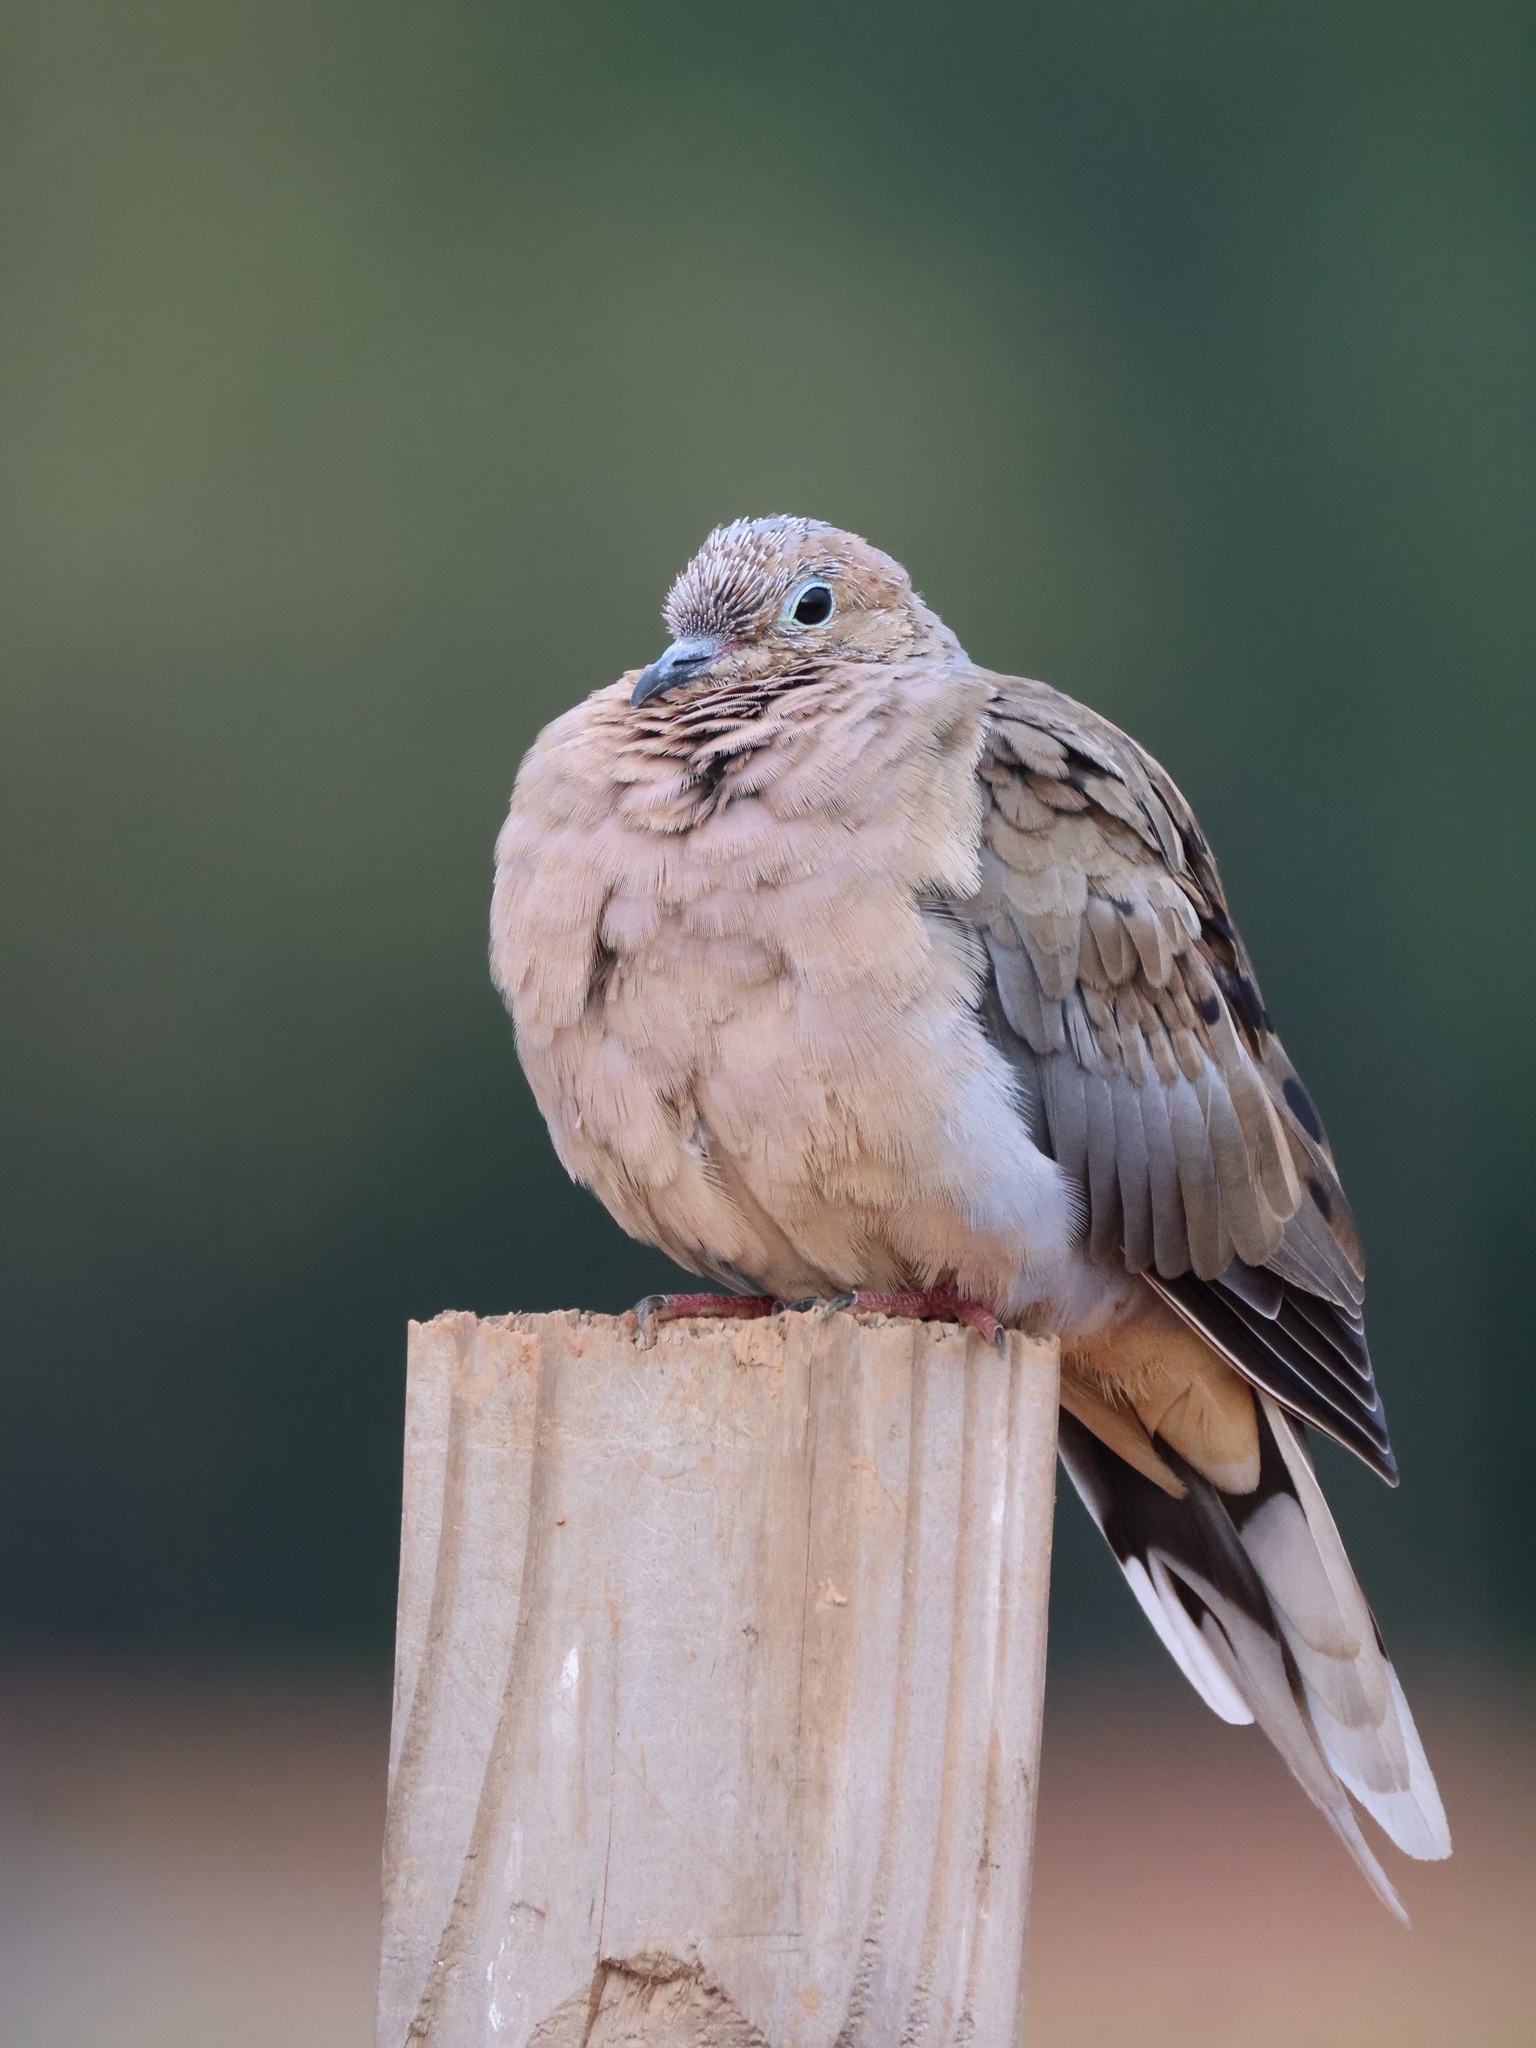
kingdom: Animalia
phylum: Chordata
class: Aves
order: Columbiformes
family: Columbidae
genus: Zenaida
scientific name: Zenaida macroura
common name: Mourning dove
